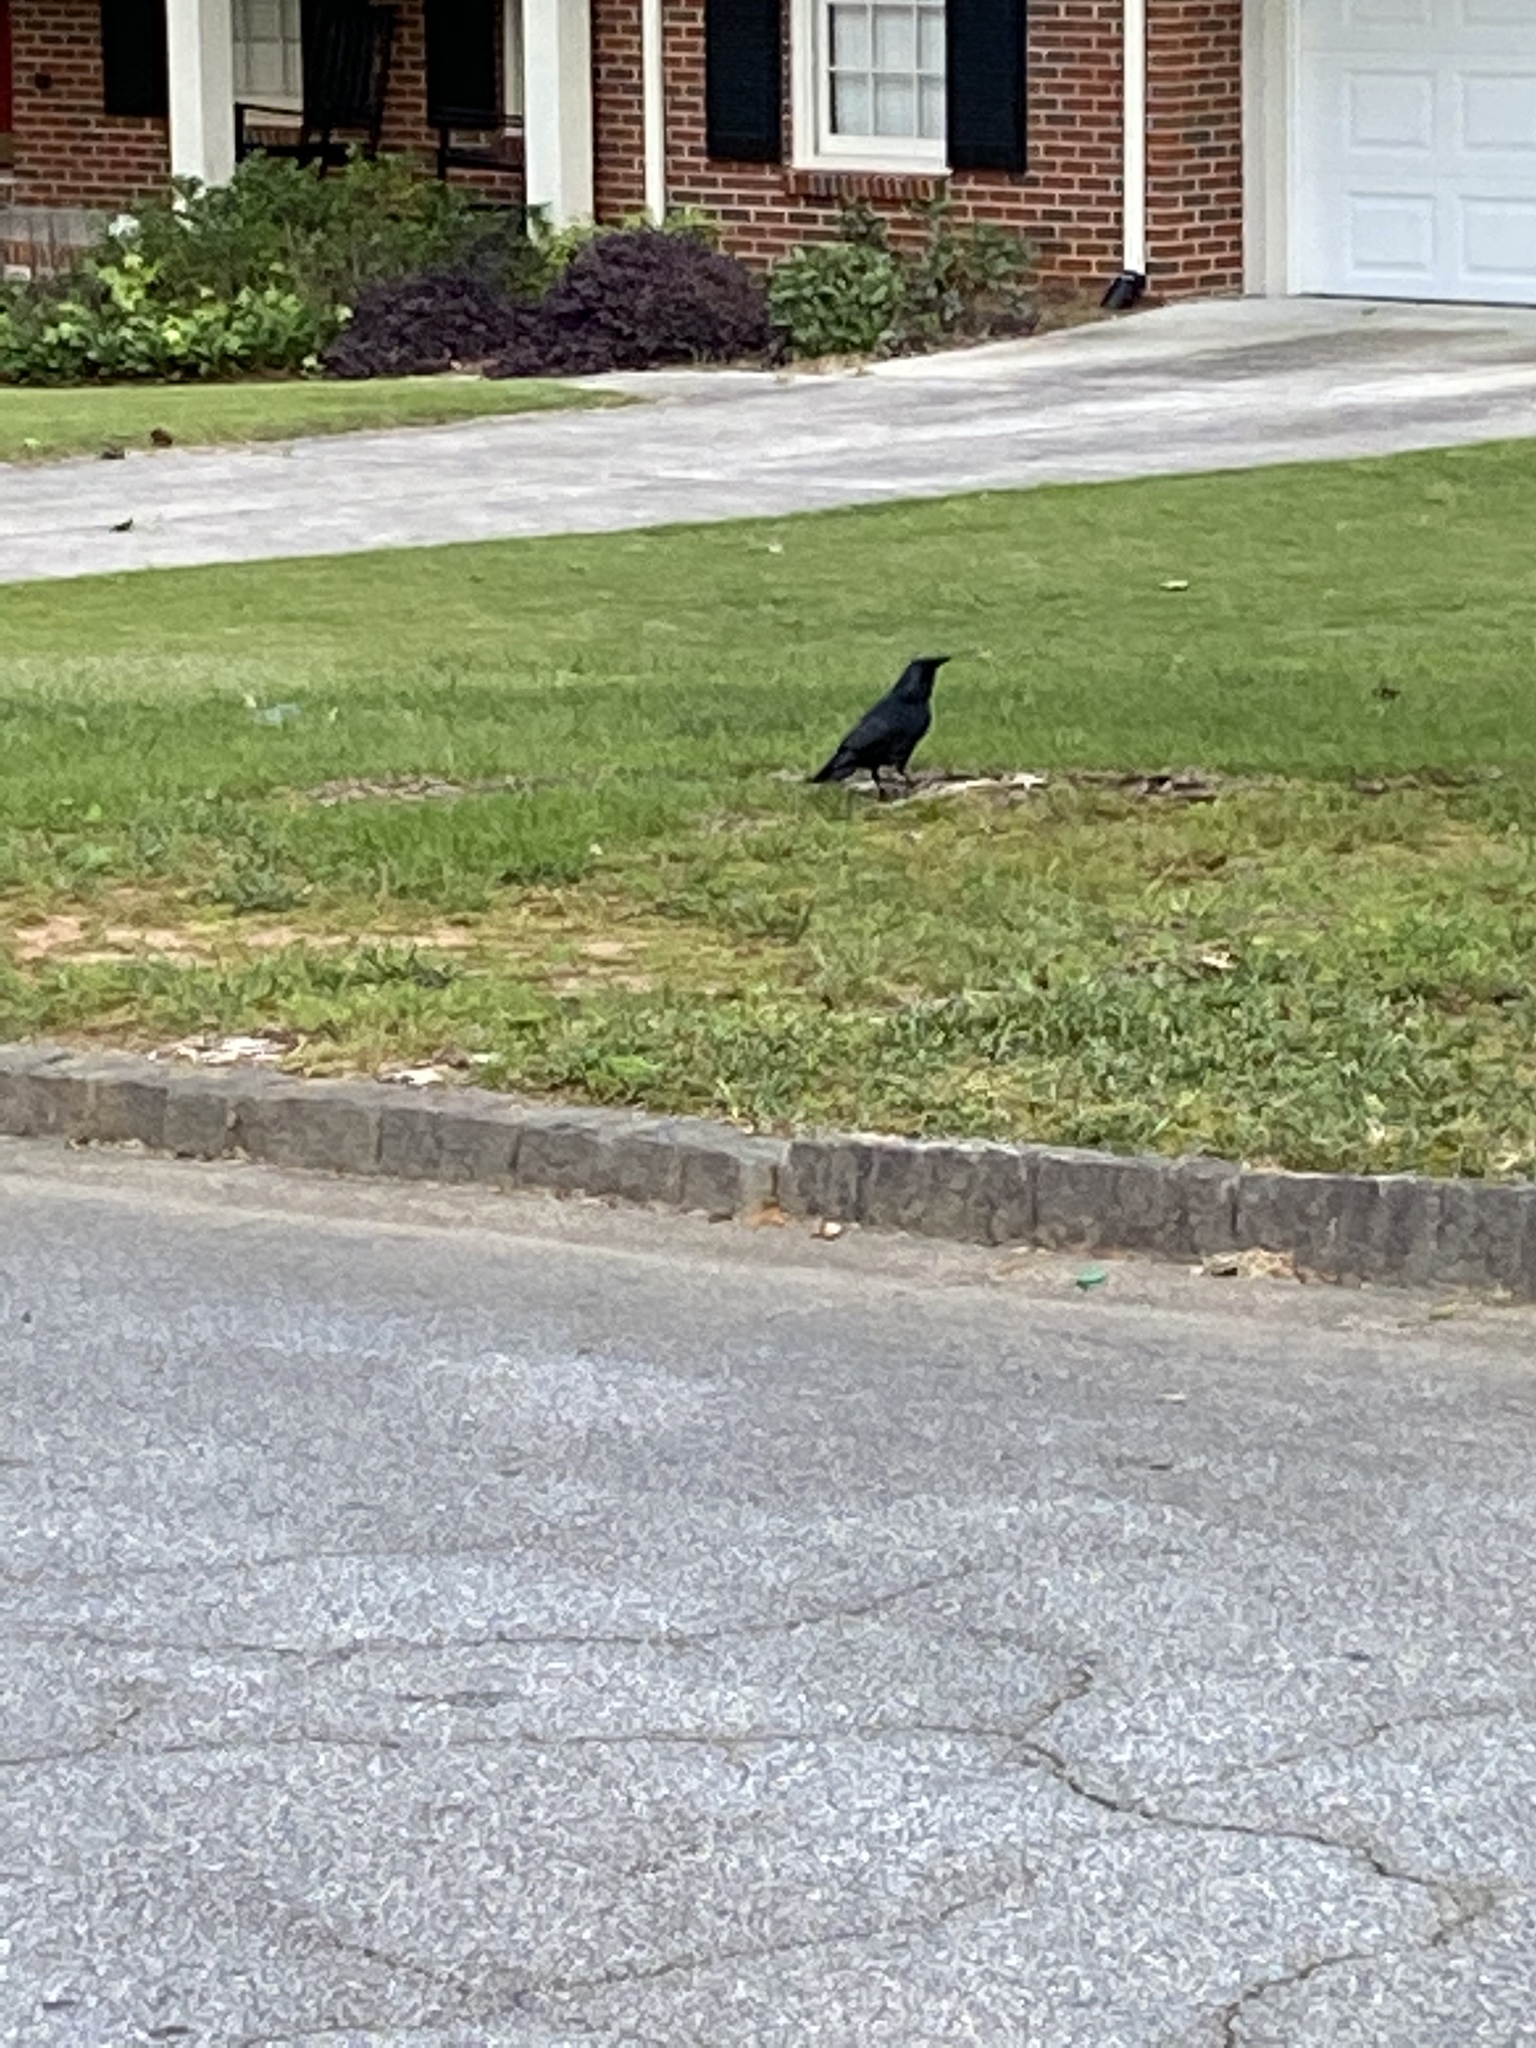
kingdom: Animalia
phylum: Chordata
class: Aves
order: Passeriformes
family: Corvidae
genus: Corvus
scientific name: Corvus
